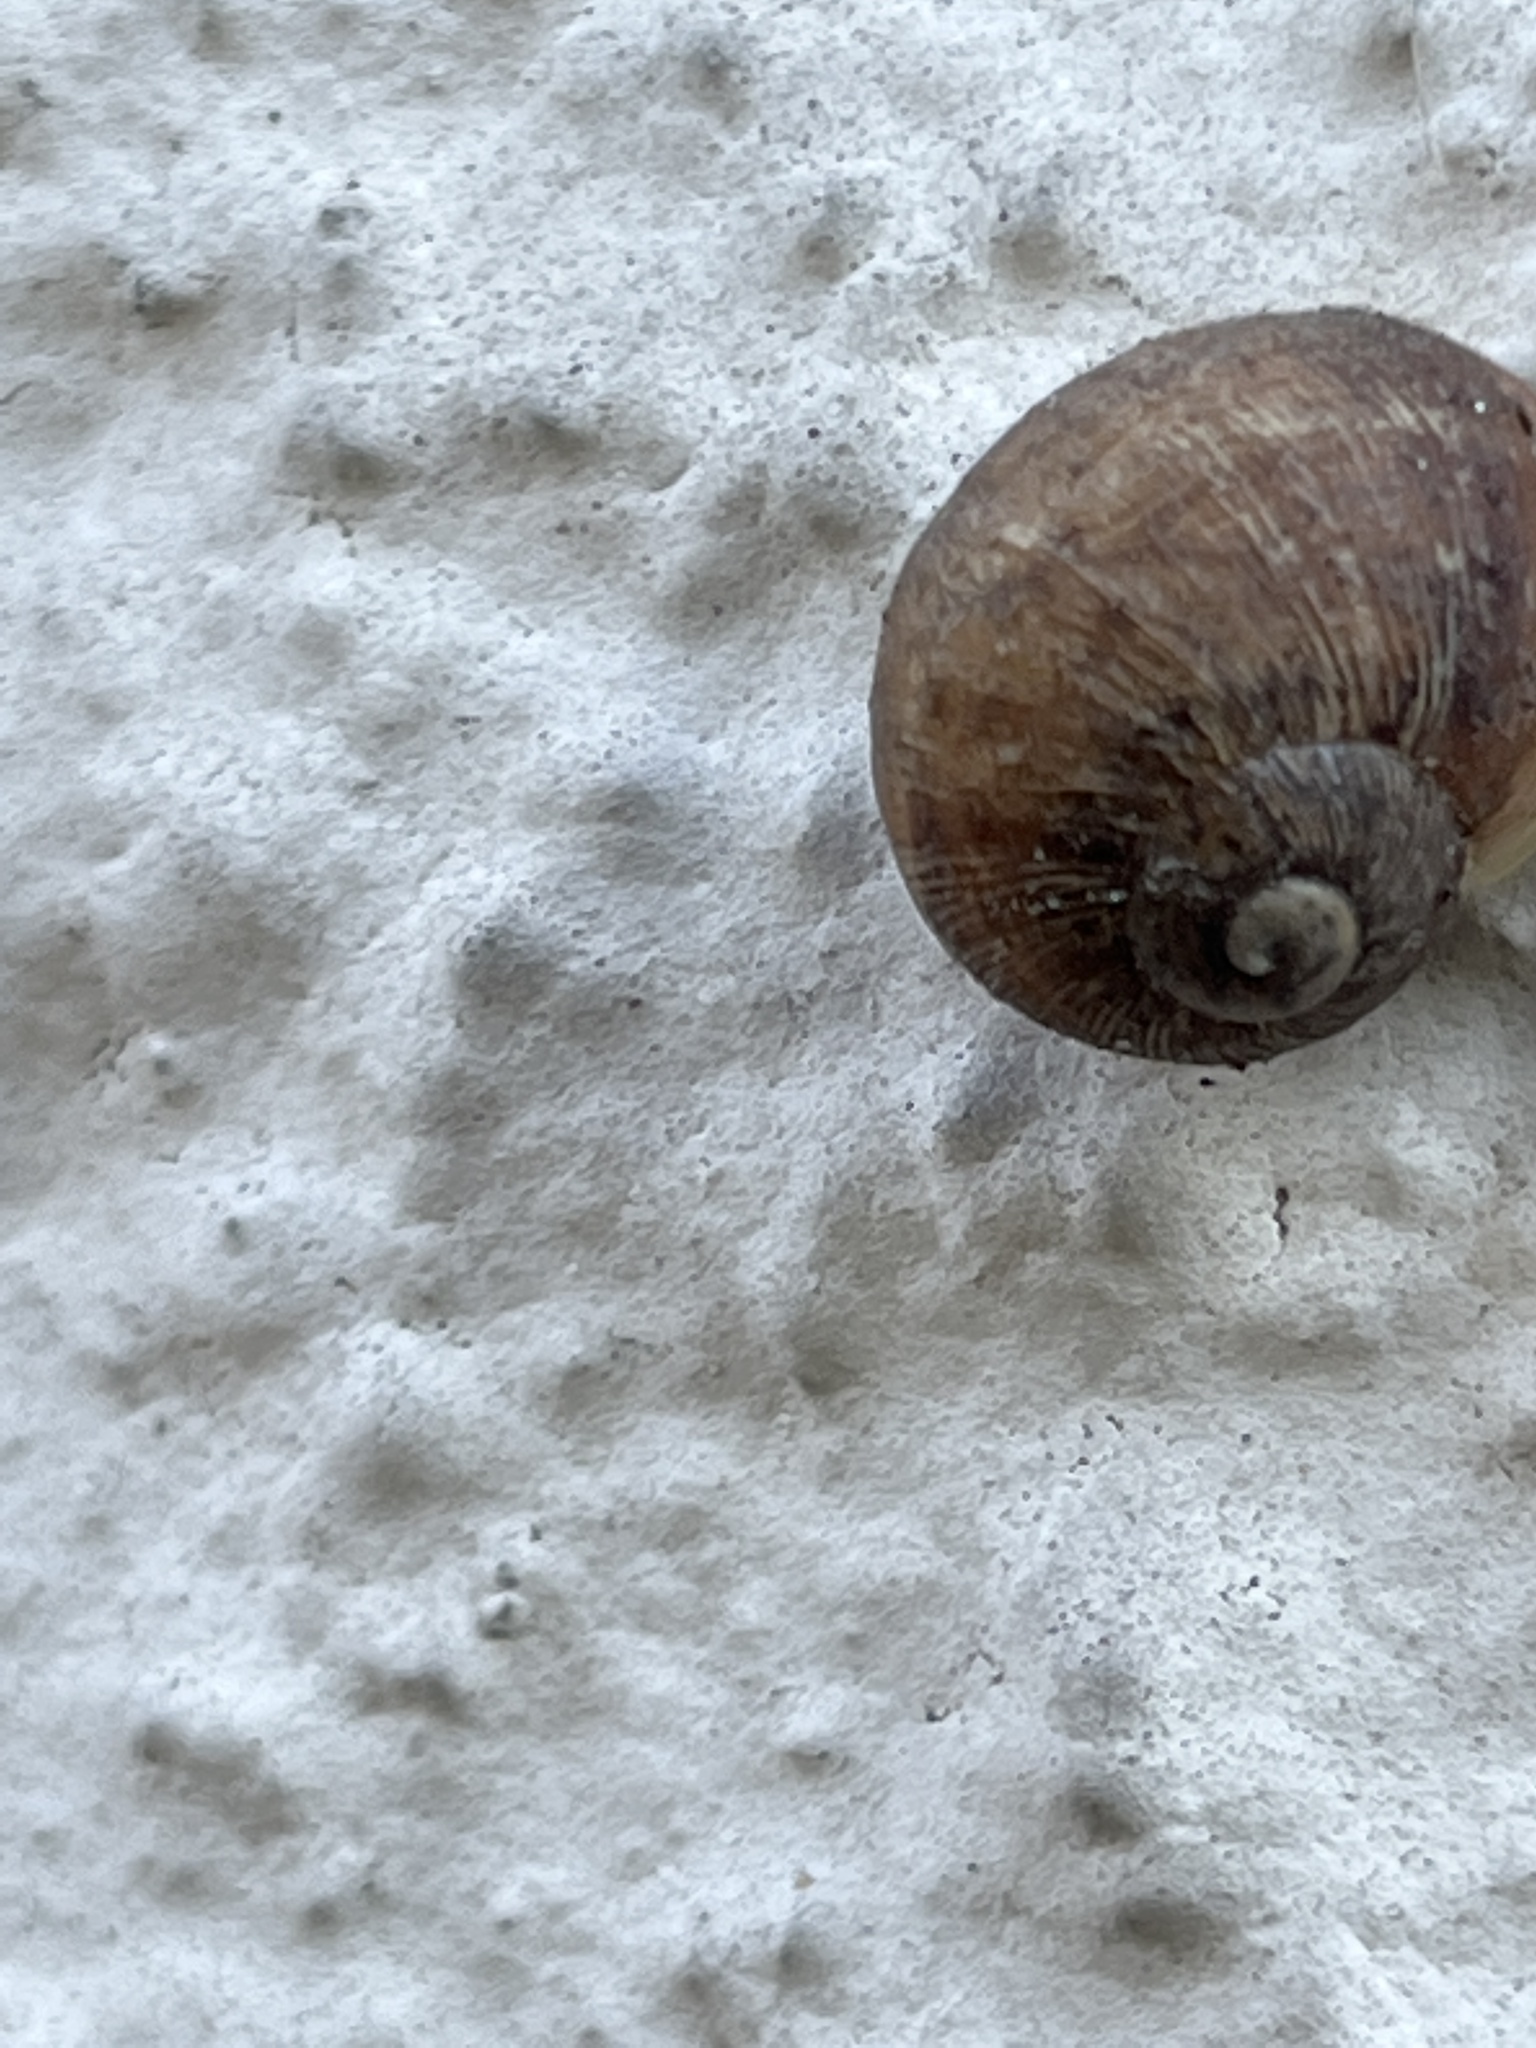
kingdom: Animalia
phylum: Mollusca
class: Gastropoda
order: Stylommatophora
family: Helicidae
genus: Cornu
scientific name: Cornu aspersum
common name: Brown garden snail
